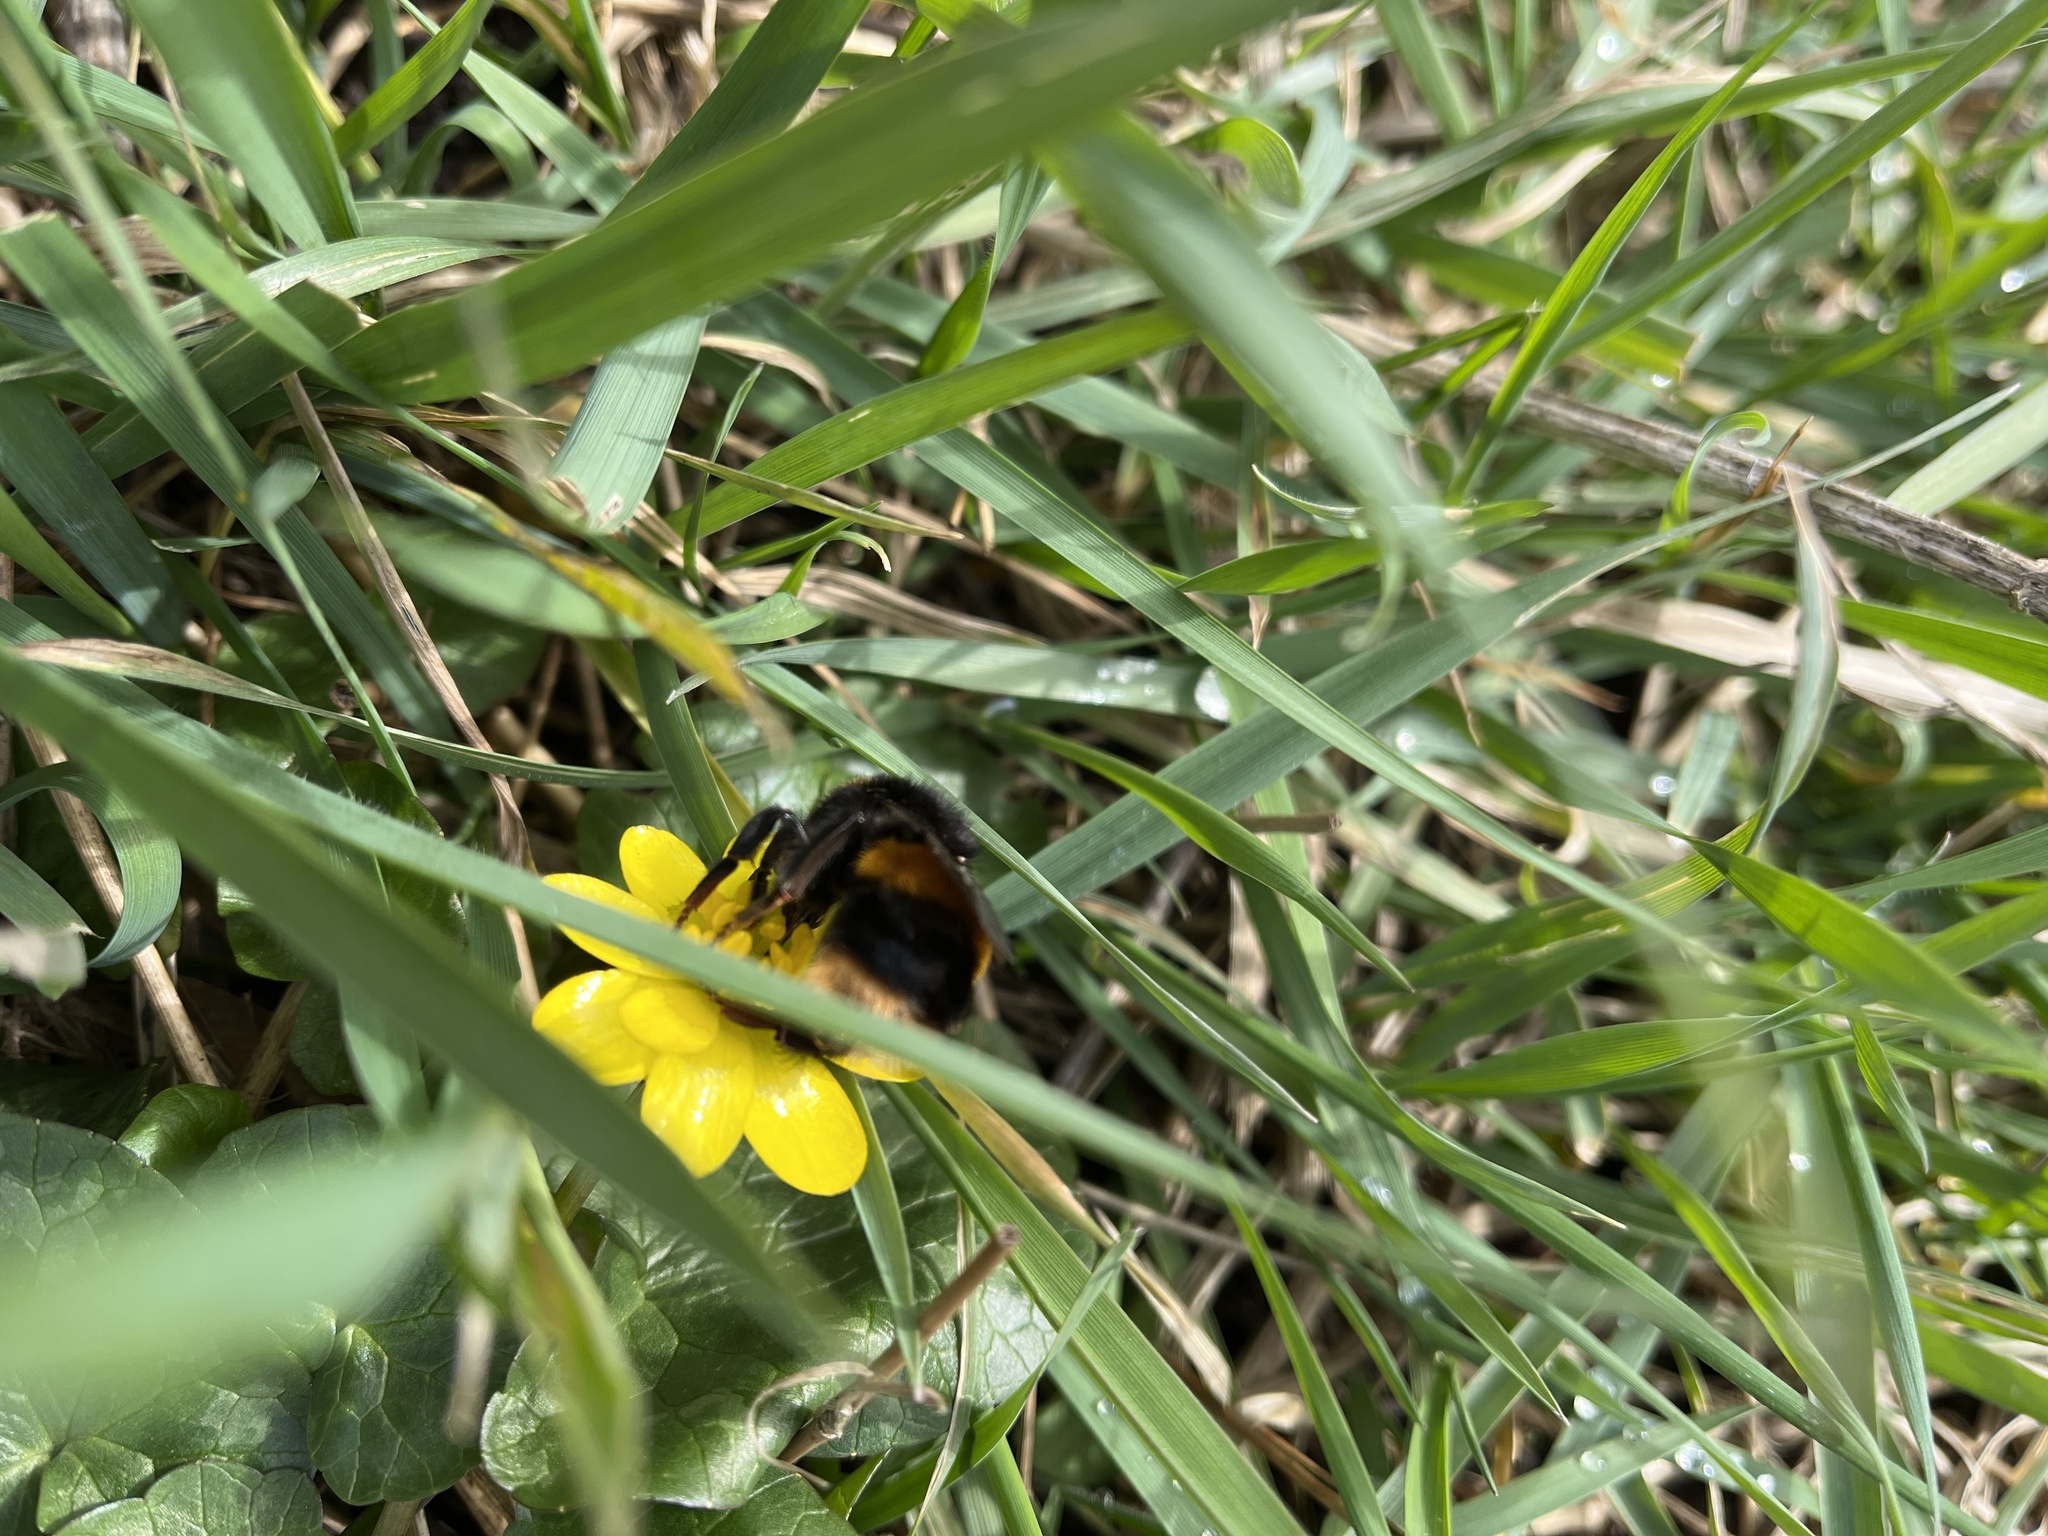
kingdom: Animalia
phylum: Arthropoda
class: Insecta
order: Hymenoptera
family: Apidae
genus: Bombus
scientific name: Bombus terrestris
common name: Buff-tailed bumblebee
